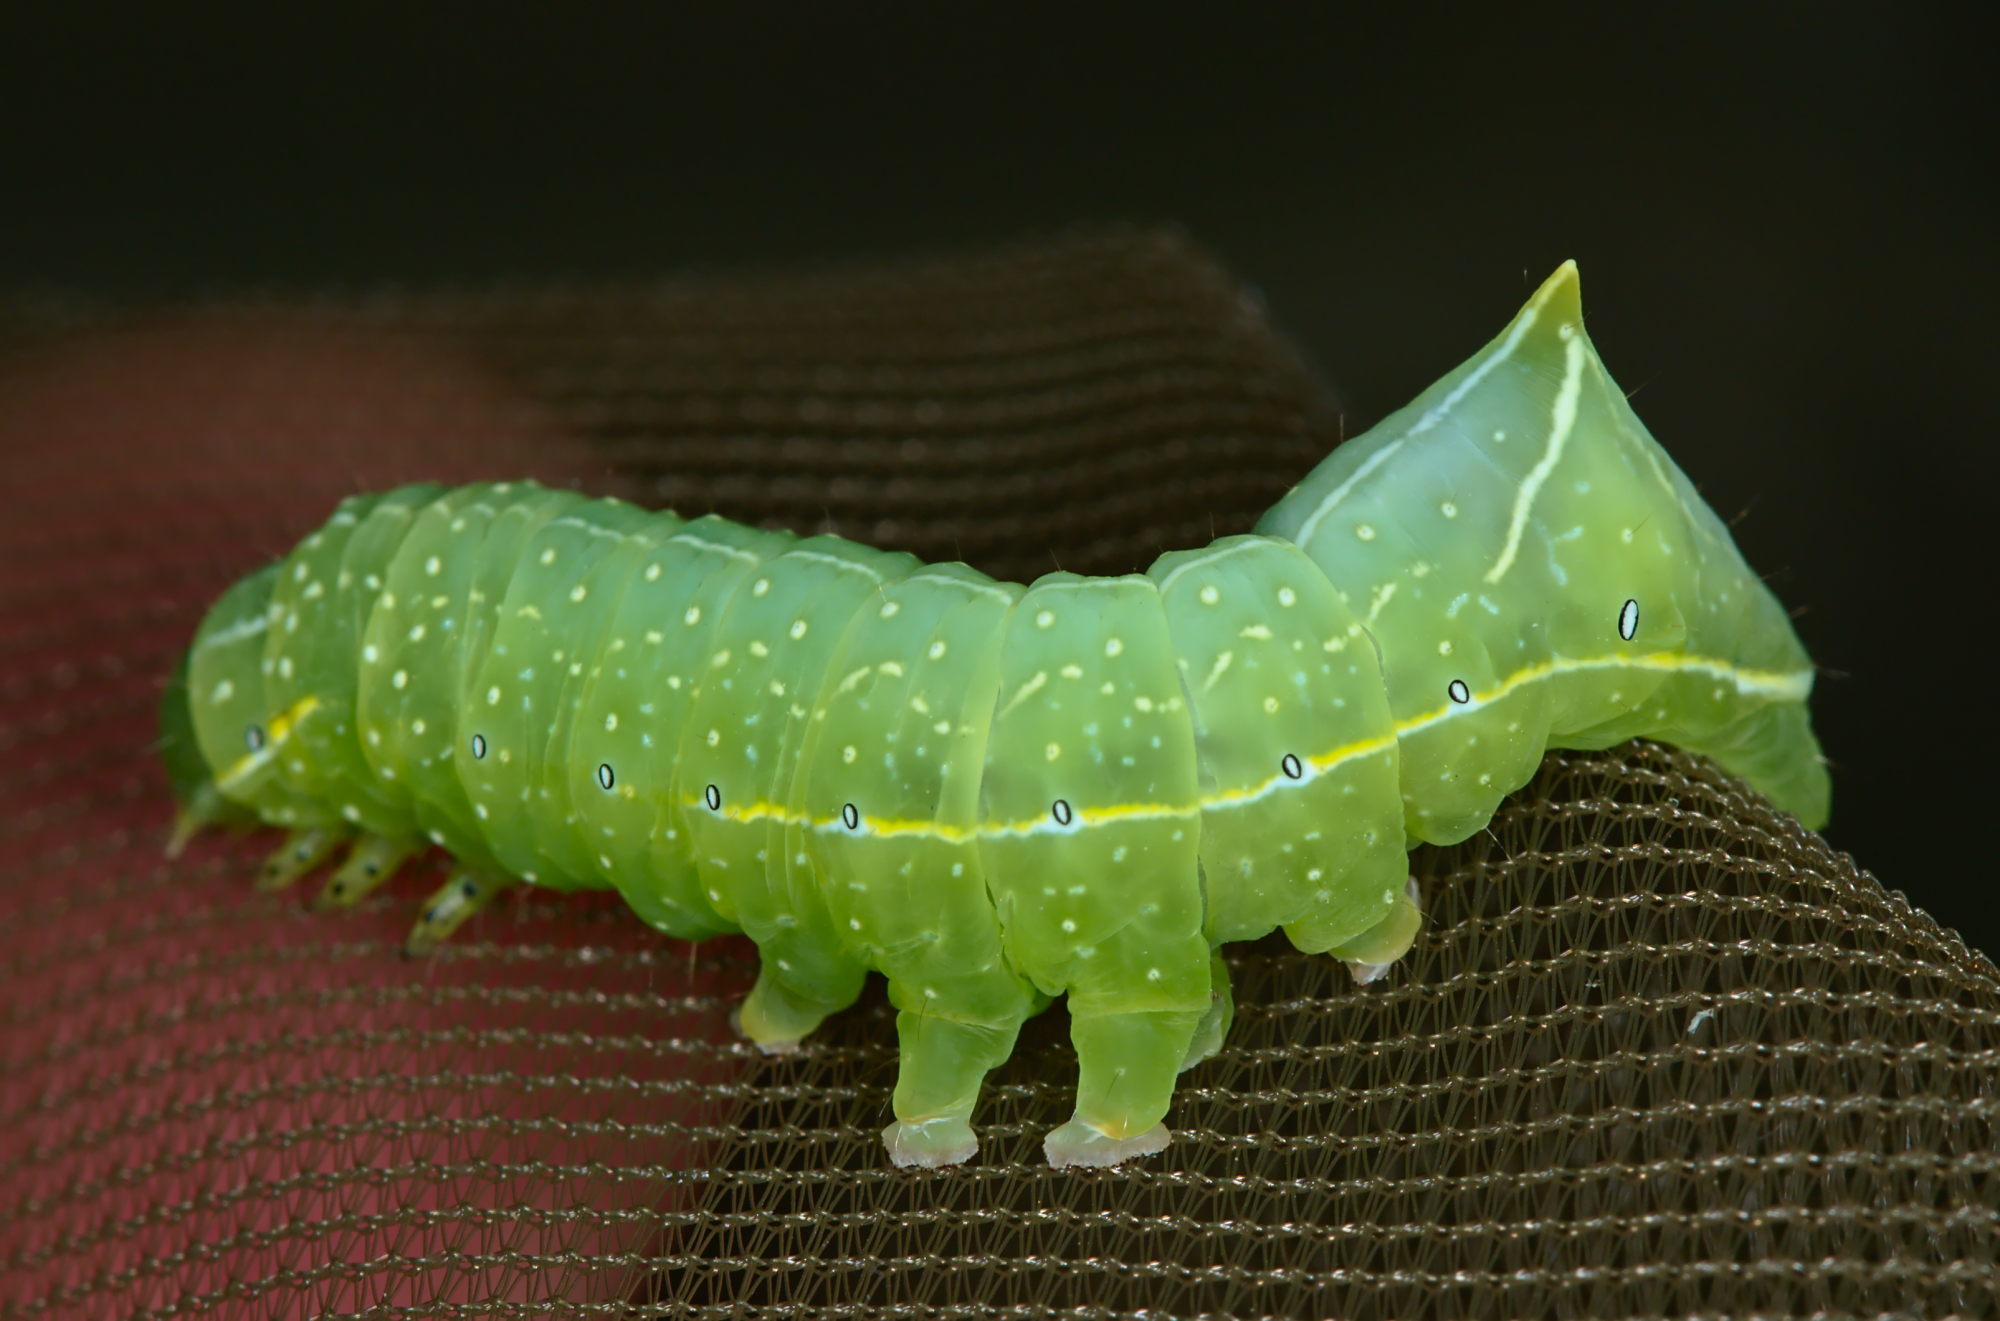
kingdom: Animalia
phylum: Arthropoda
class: Insecta
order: Lepidoptera
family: Noctuidae
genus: Amphipyra
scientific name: Amphipyra pyramidea
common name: Copper underwing
